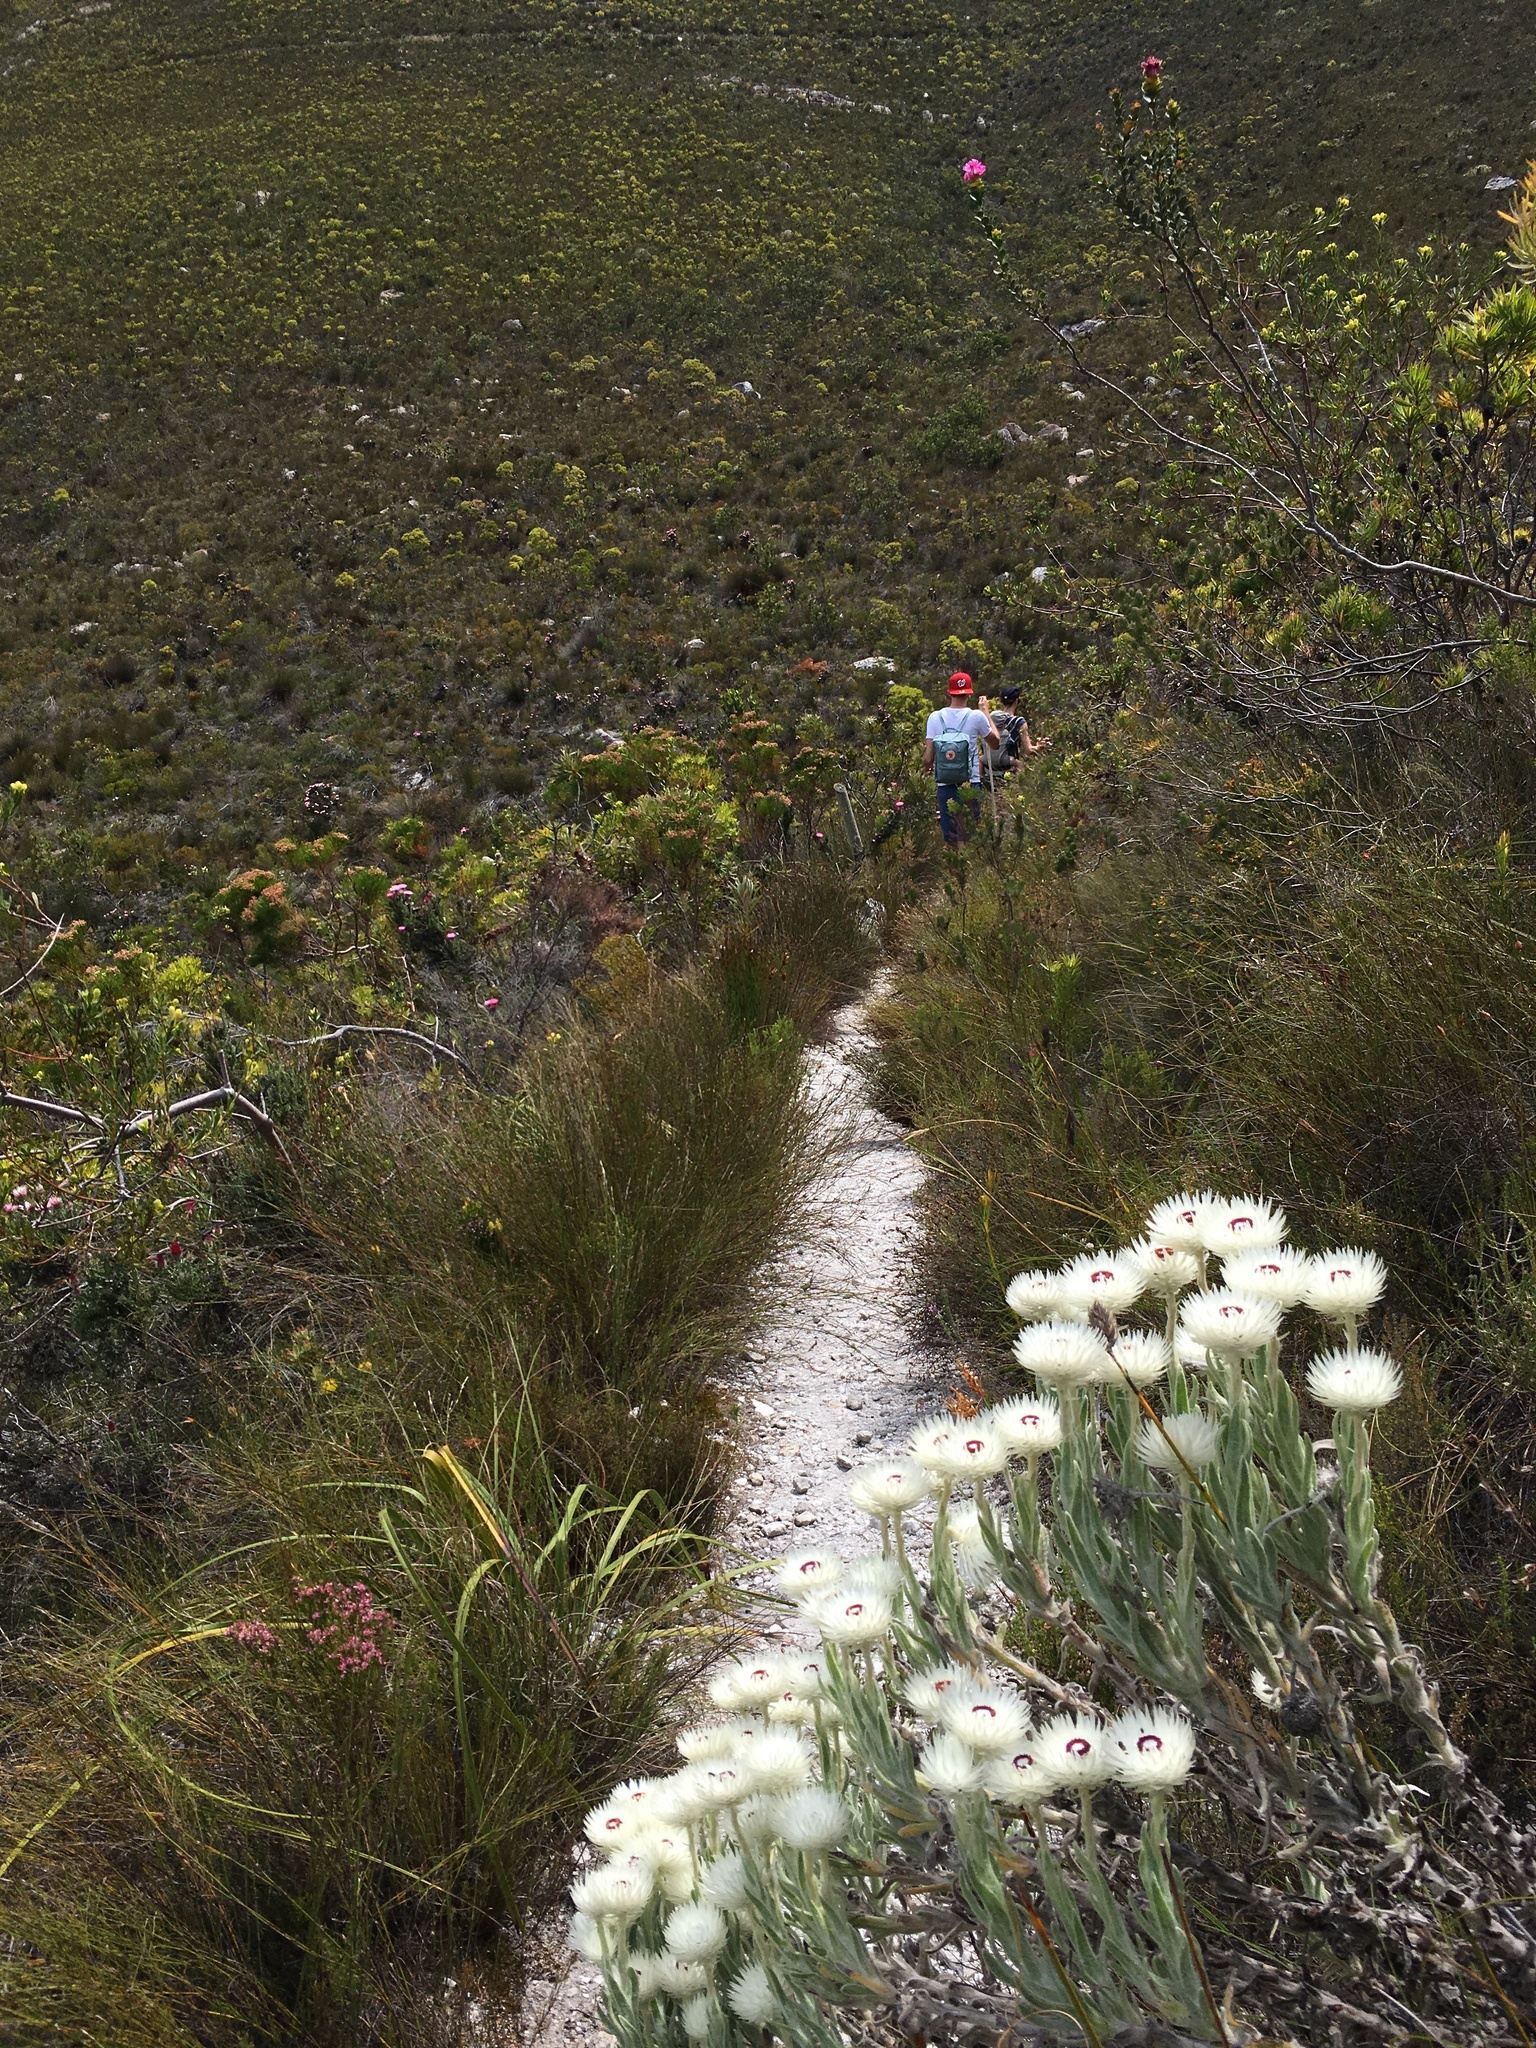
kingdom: Plantae
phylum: Tracheophyta
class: Magnoliopsida
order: Asterales
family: Asteraceae
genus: Syncarpha
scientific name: Syncarpha vestita
